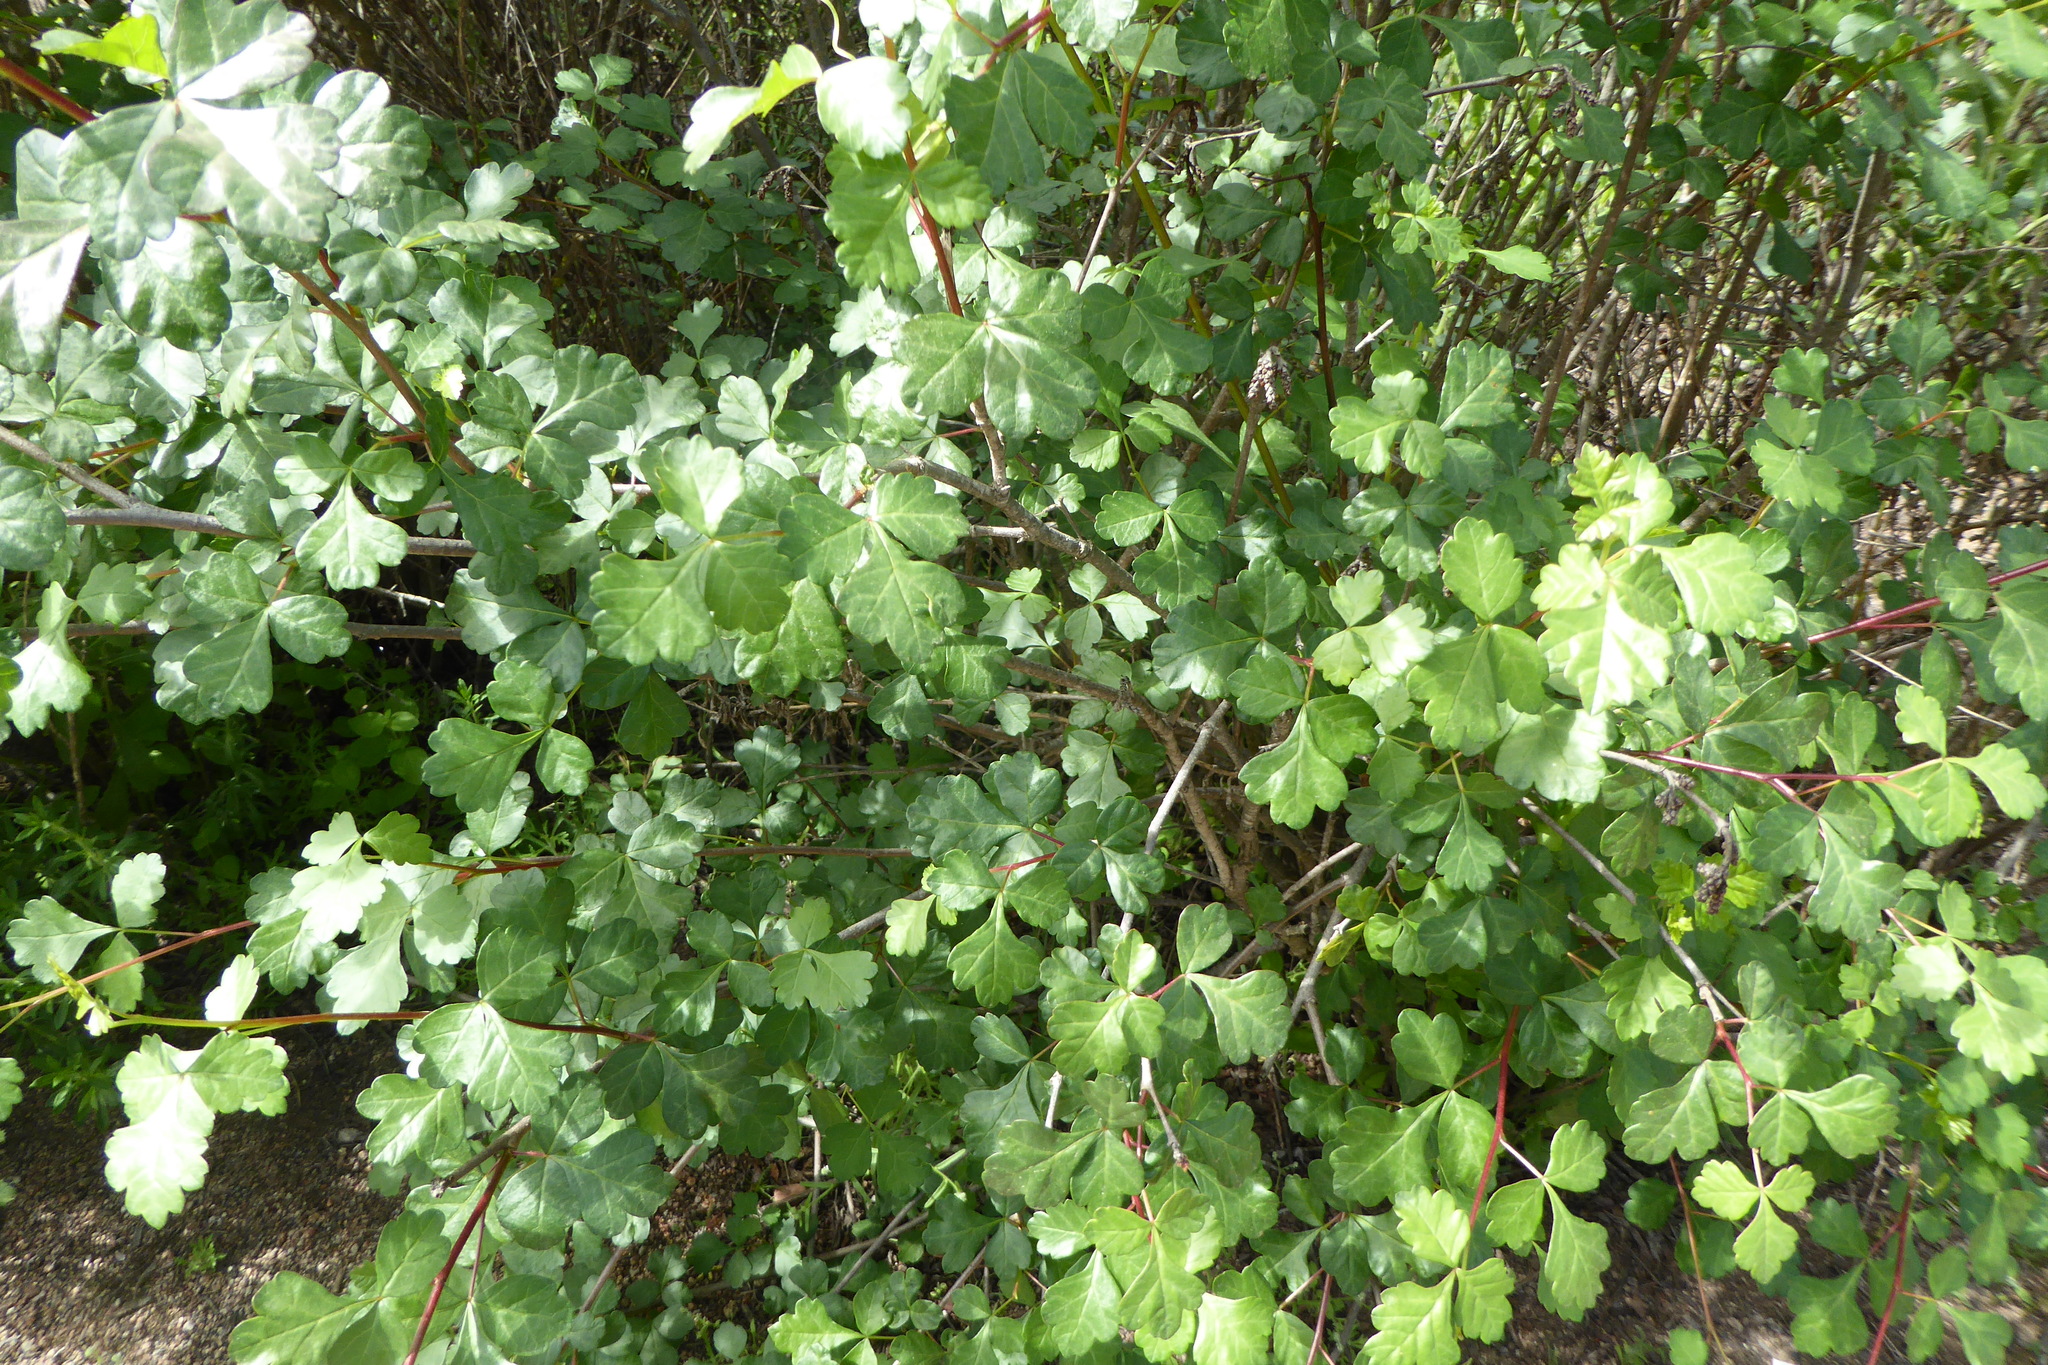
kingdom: Plantae
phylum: Tracheophyta
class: Magnoliopsida
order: Sapindales
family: Anacardiaceae
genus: Rhus
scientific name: Rhus aromatica
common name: Aromatic sumac
